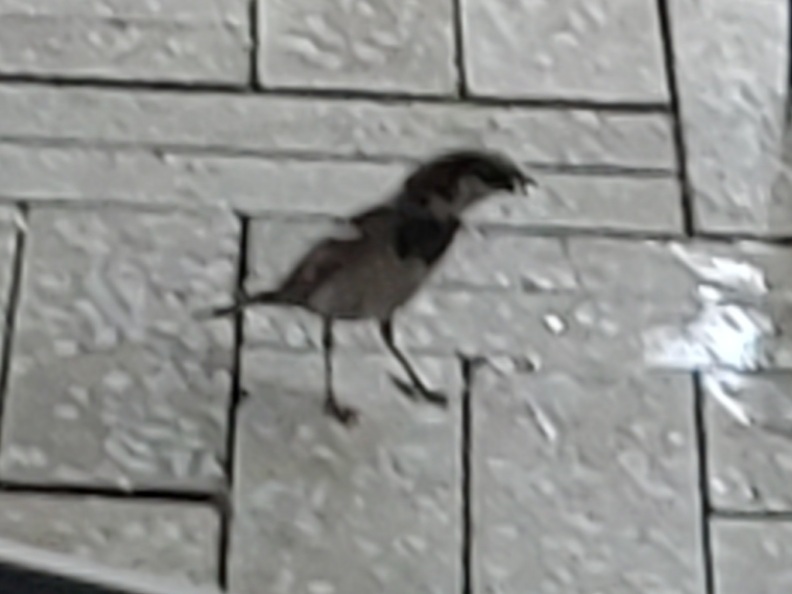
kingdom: Animalia
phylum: Chordata
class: Aves
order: Passeriformes
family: Passeridae
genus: Passer
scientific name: Passer domesticus
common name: House sparrow
